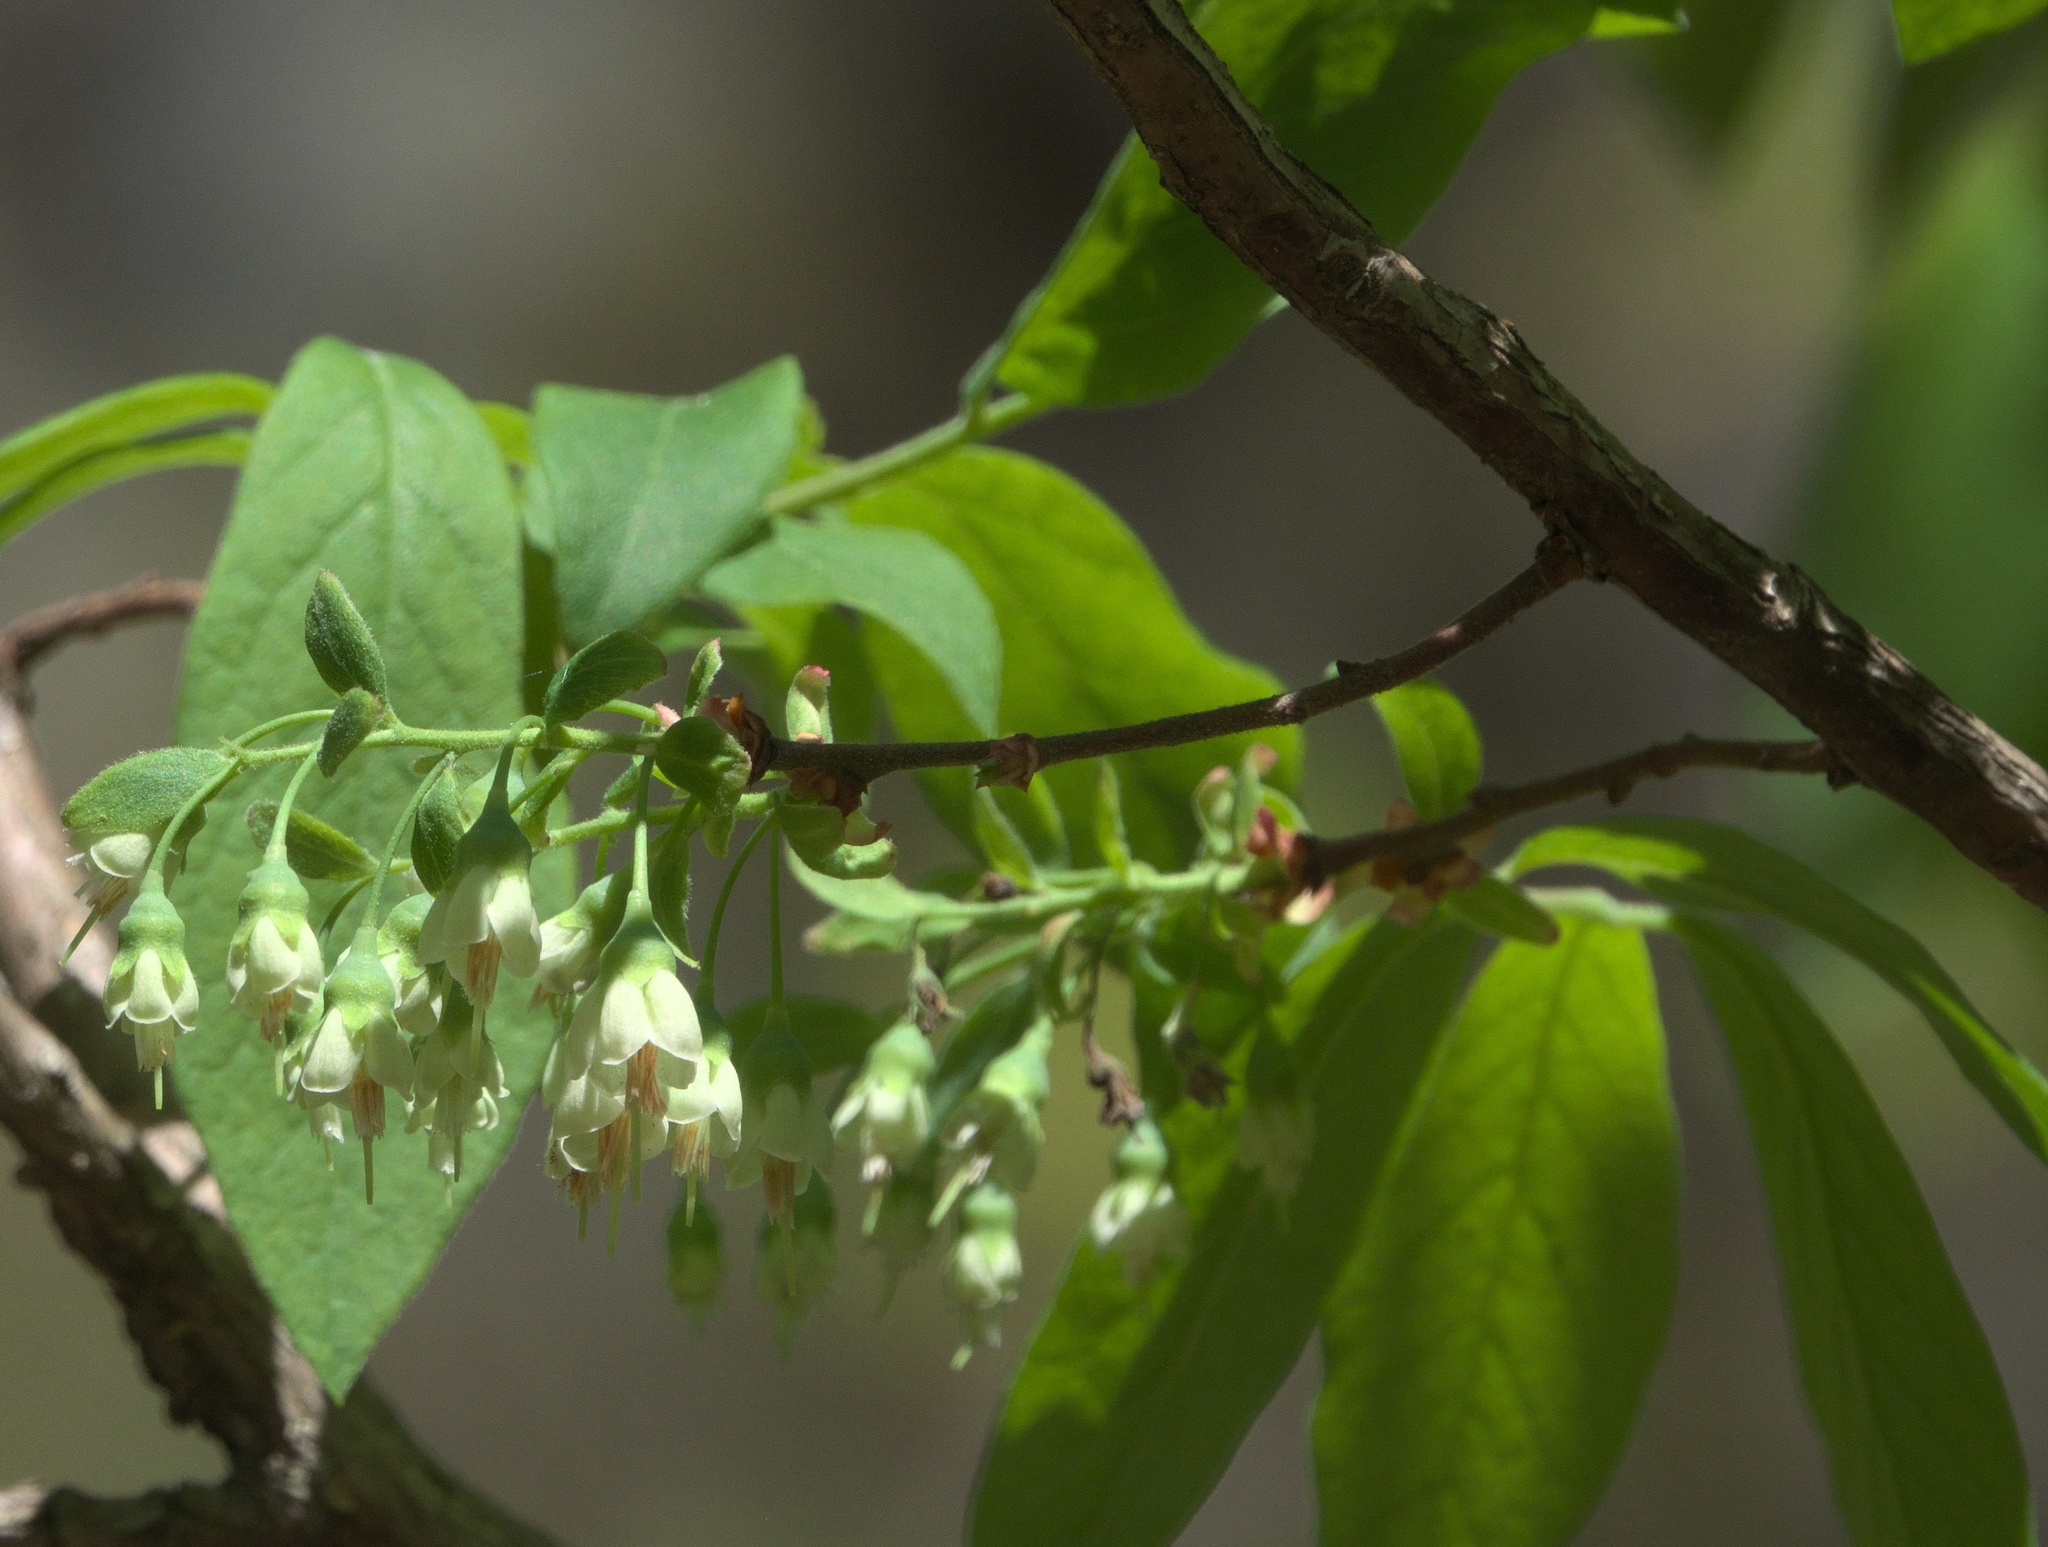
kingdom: Plantae
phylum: Tracheophyta
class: Magnoliopsida
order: Ericales
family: Ericaceae
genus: Vaccinium
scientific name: Vaccinium stamineum
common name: Deerberry
